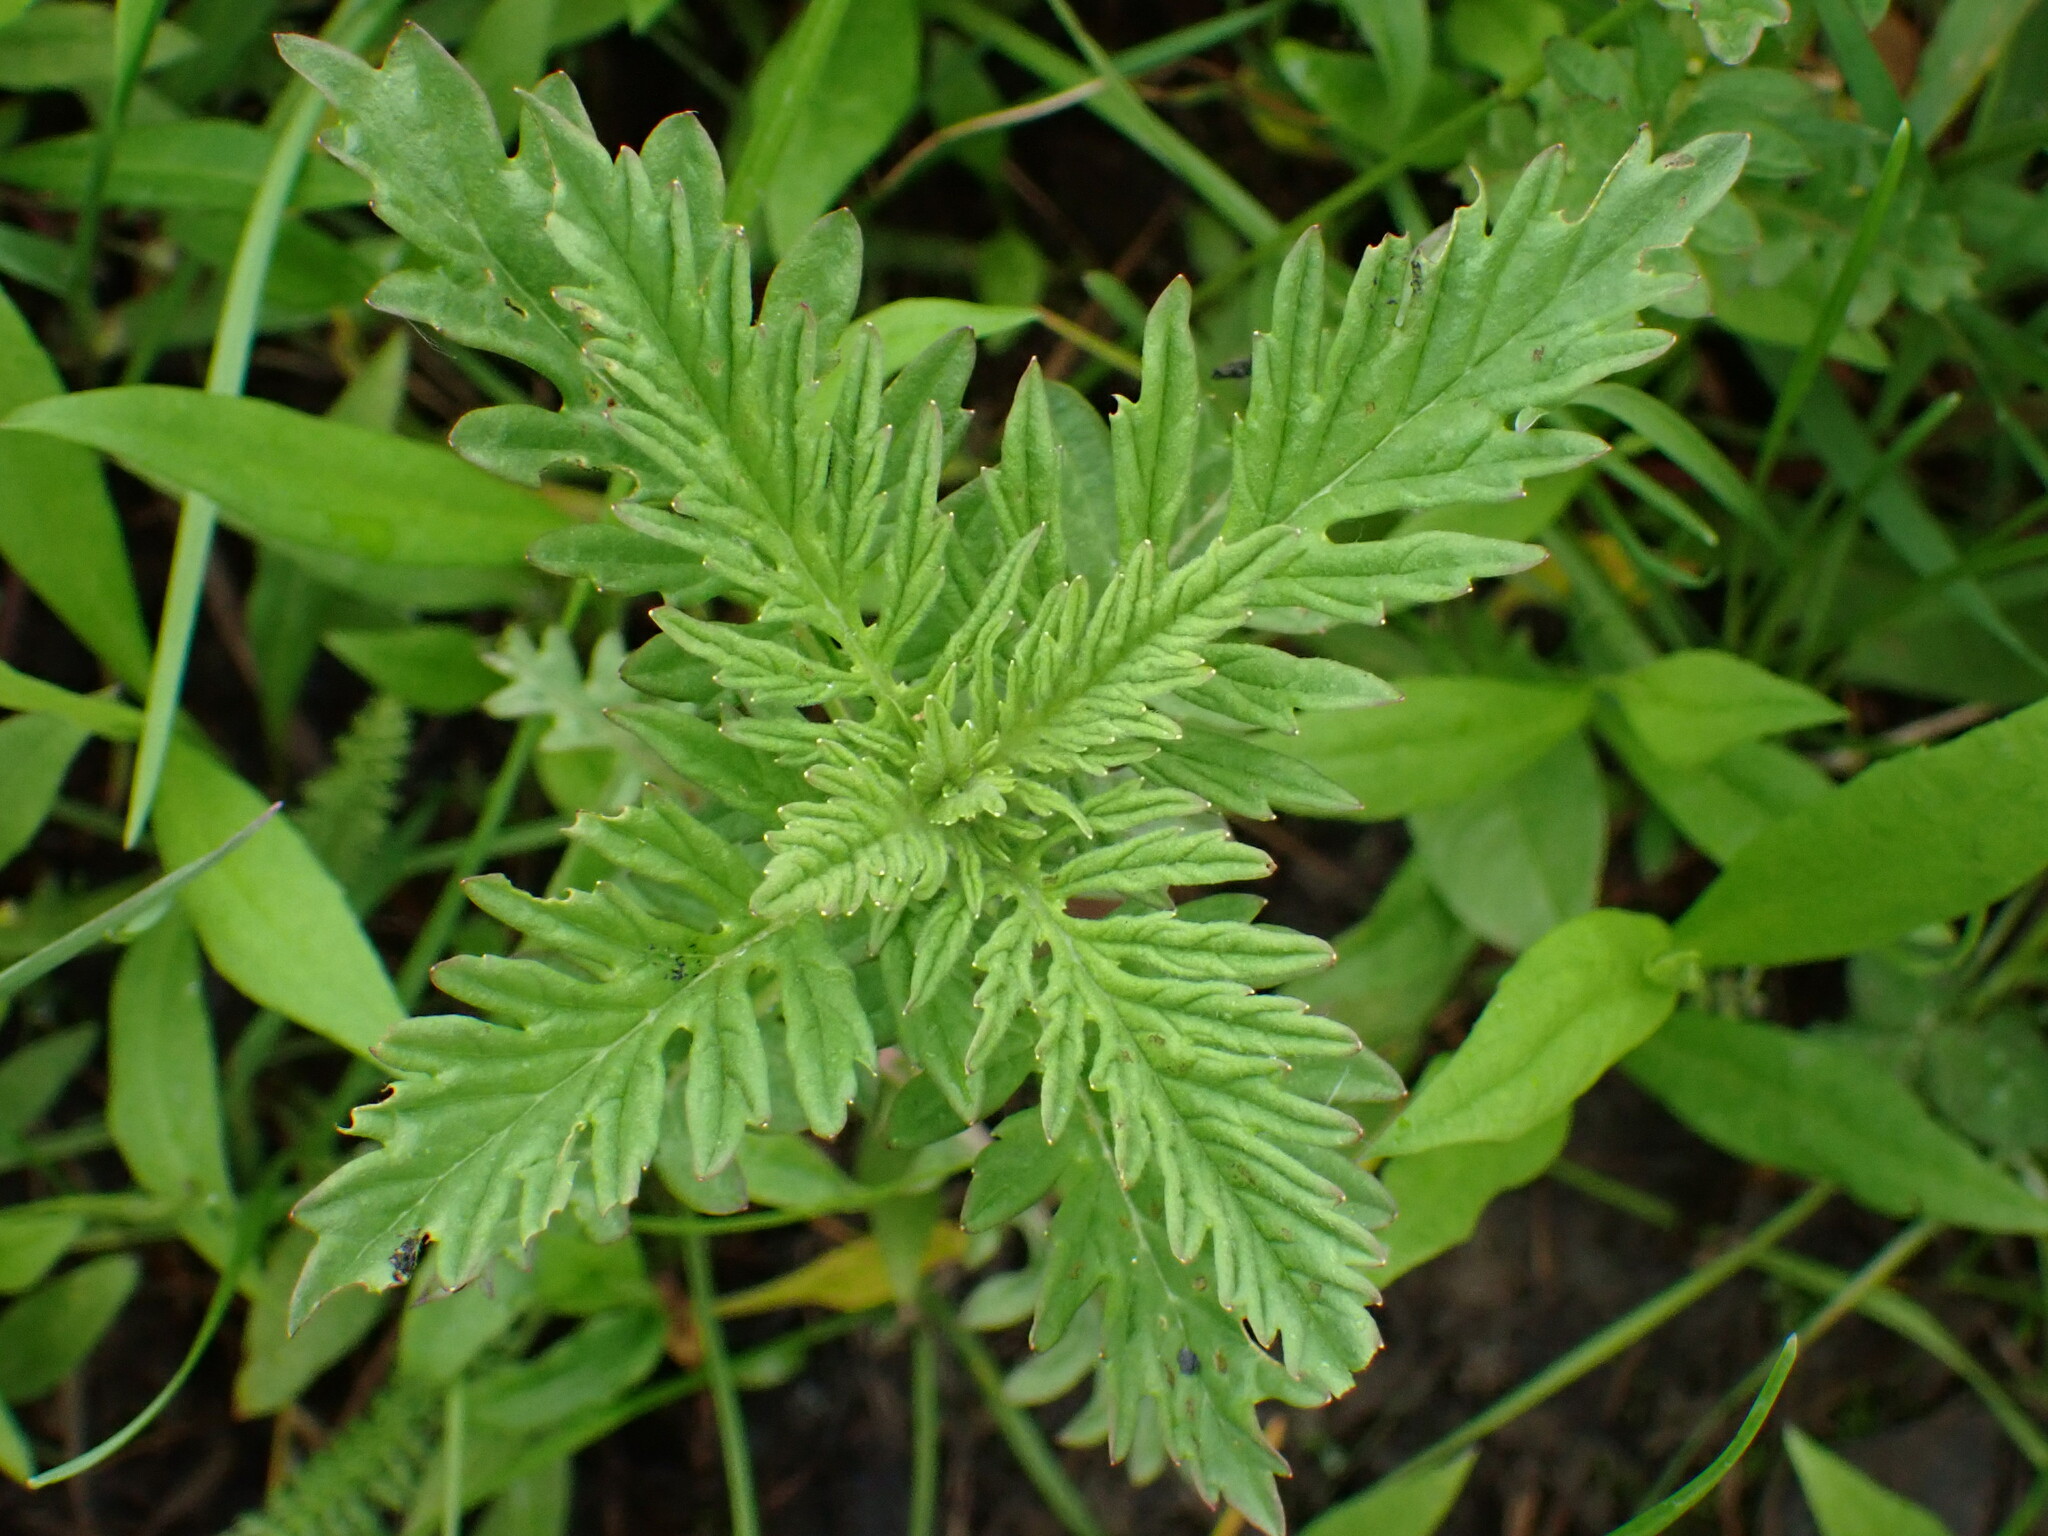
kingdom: Plantae
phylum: Tracheophyta
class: Magnoliopsida
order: Lamiales
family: Lamiaceae
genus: Lycopus
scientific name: Lycopus exaltatus
